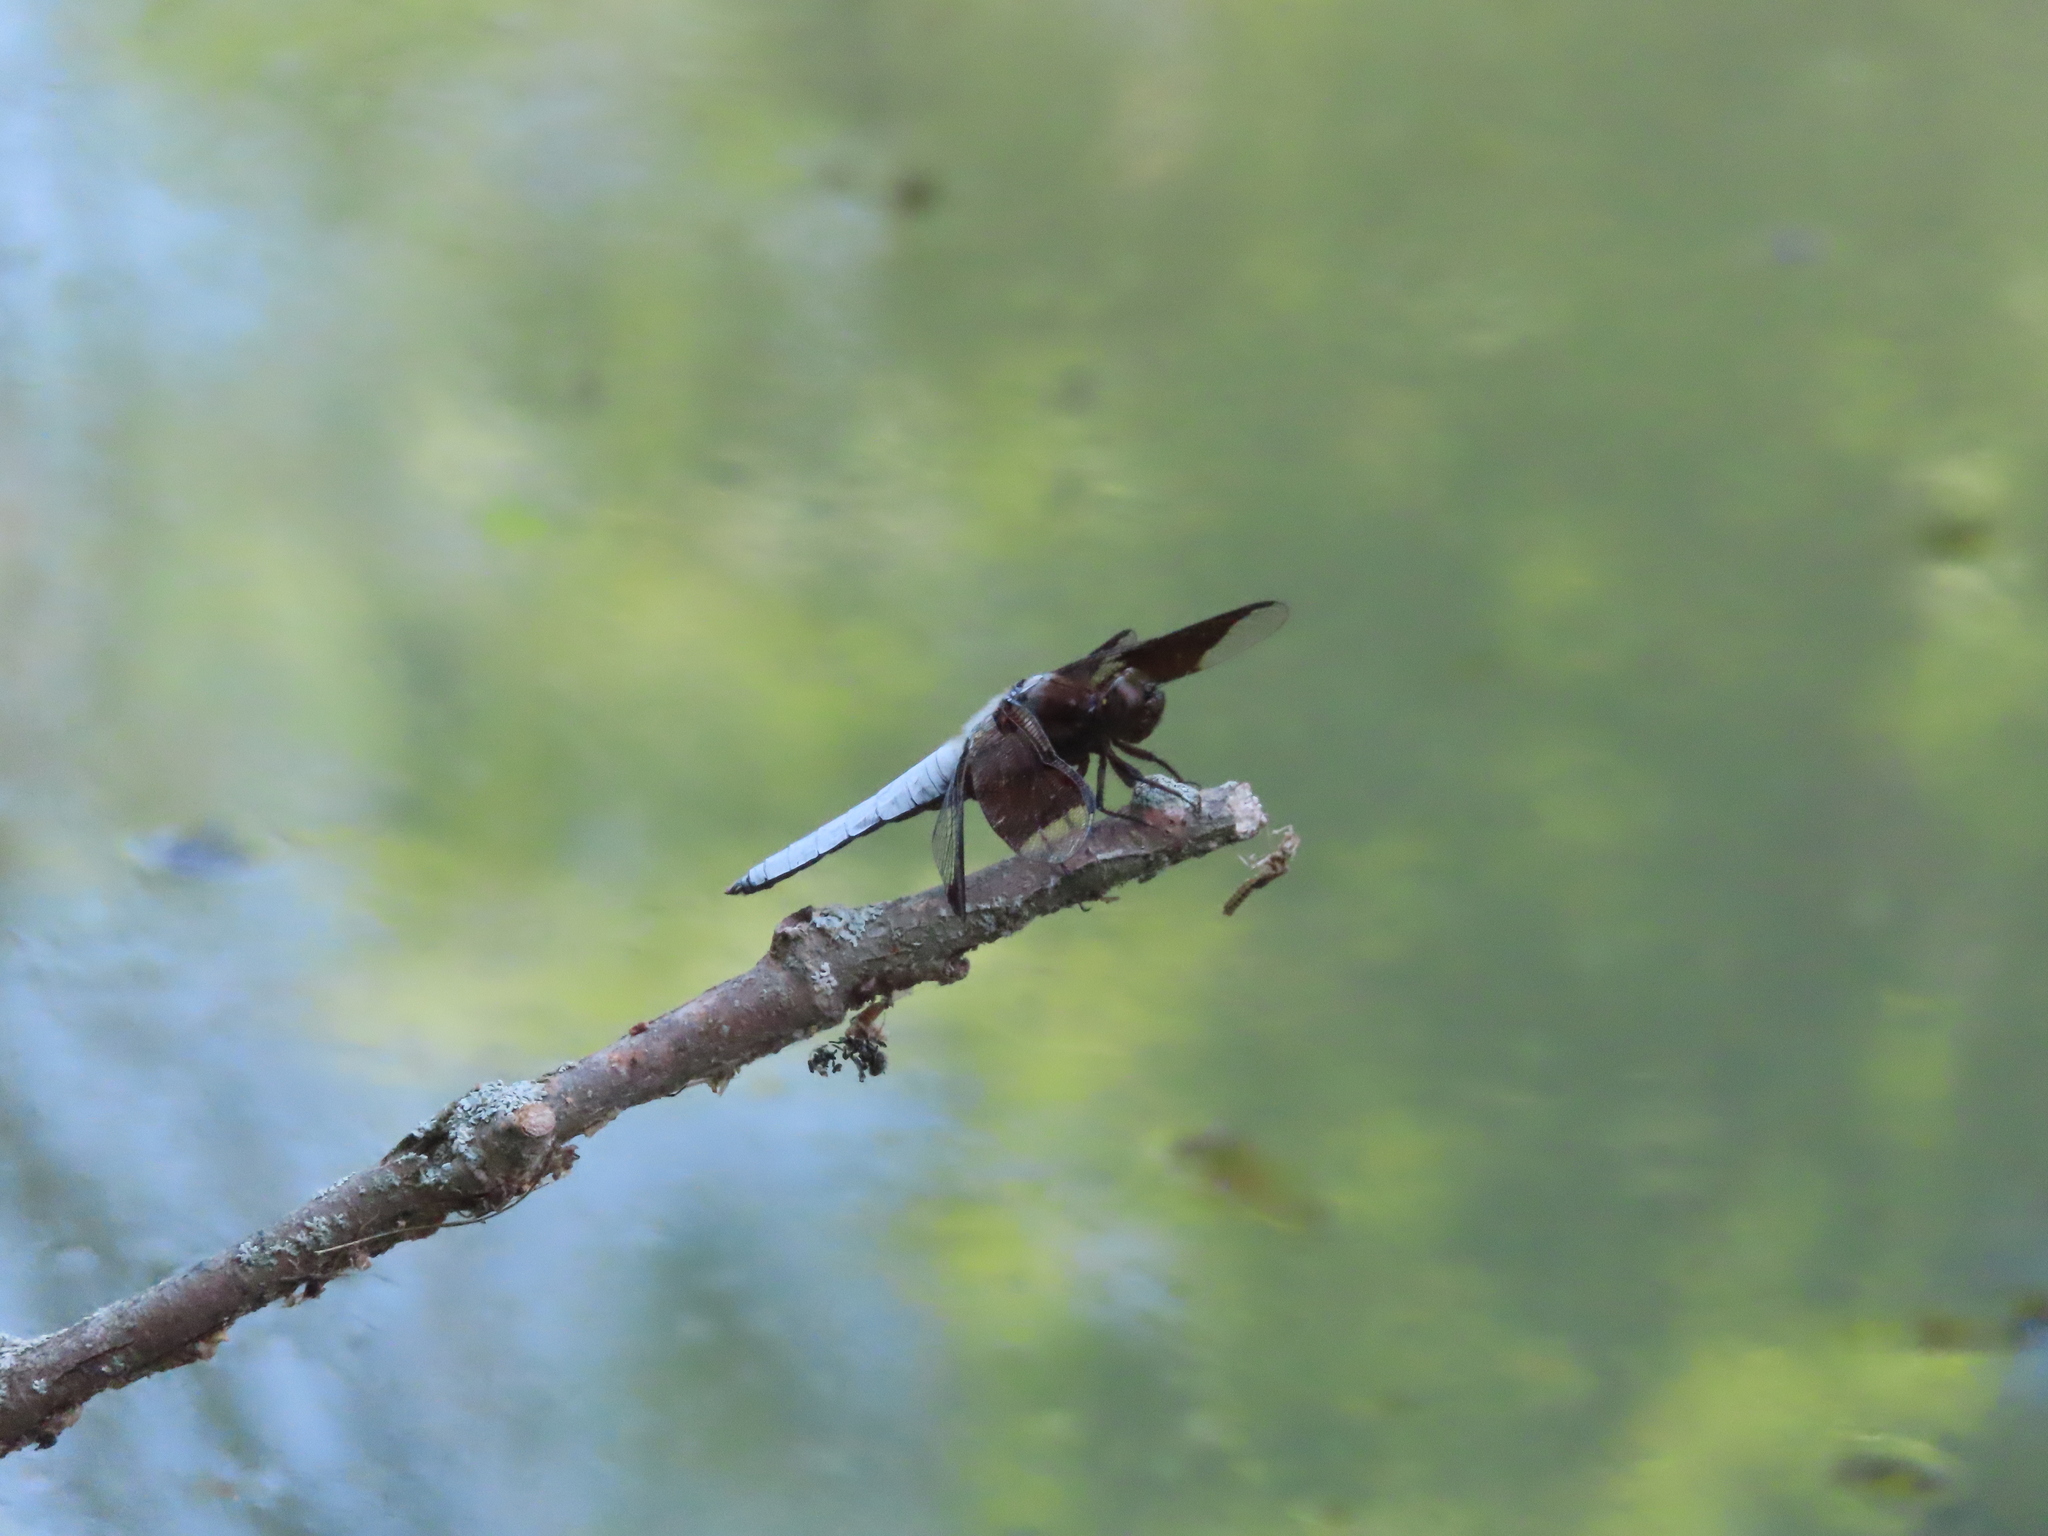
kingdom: Animalia
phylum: Arthropoda
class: Insecta
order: Odonata
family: Libellulidae
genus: Plathemis
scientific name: Plathemis lydia
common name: Common whitetail
